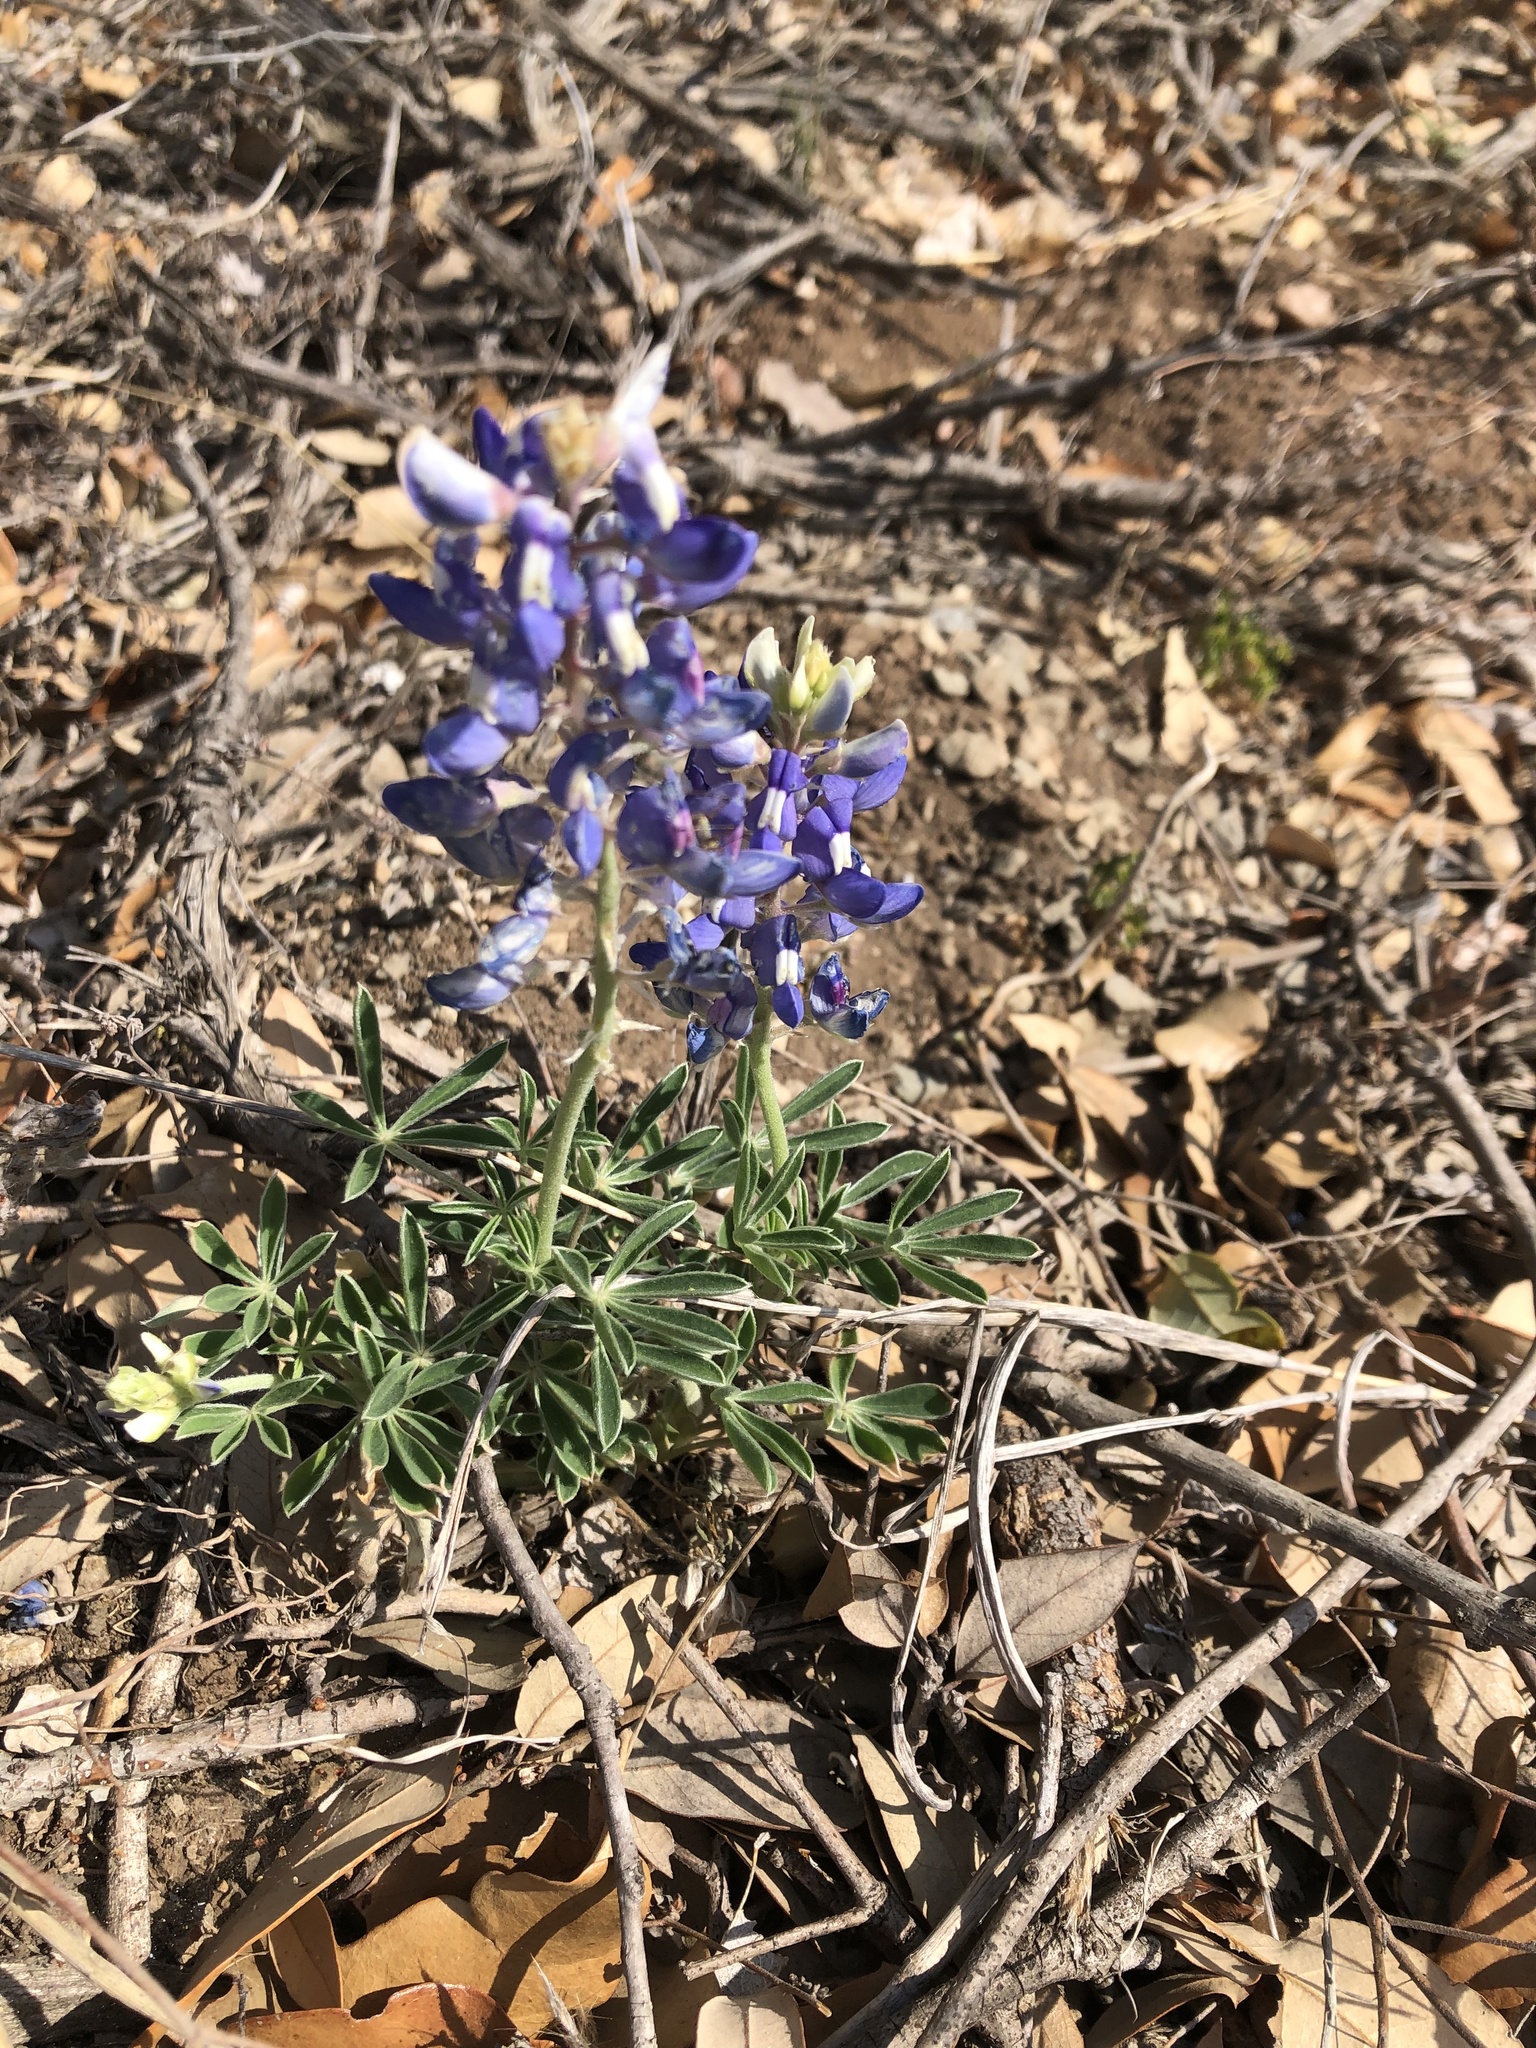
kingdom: Plantae
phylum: Tracheophyta
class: Magnoliopsida
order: Fabales
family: Fabaceae
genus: Lupinus
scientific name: Lupinus texensis
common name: Texas bluebonnet
